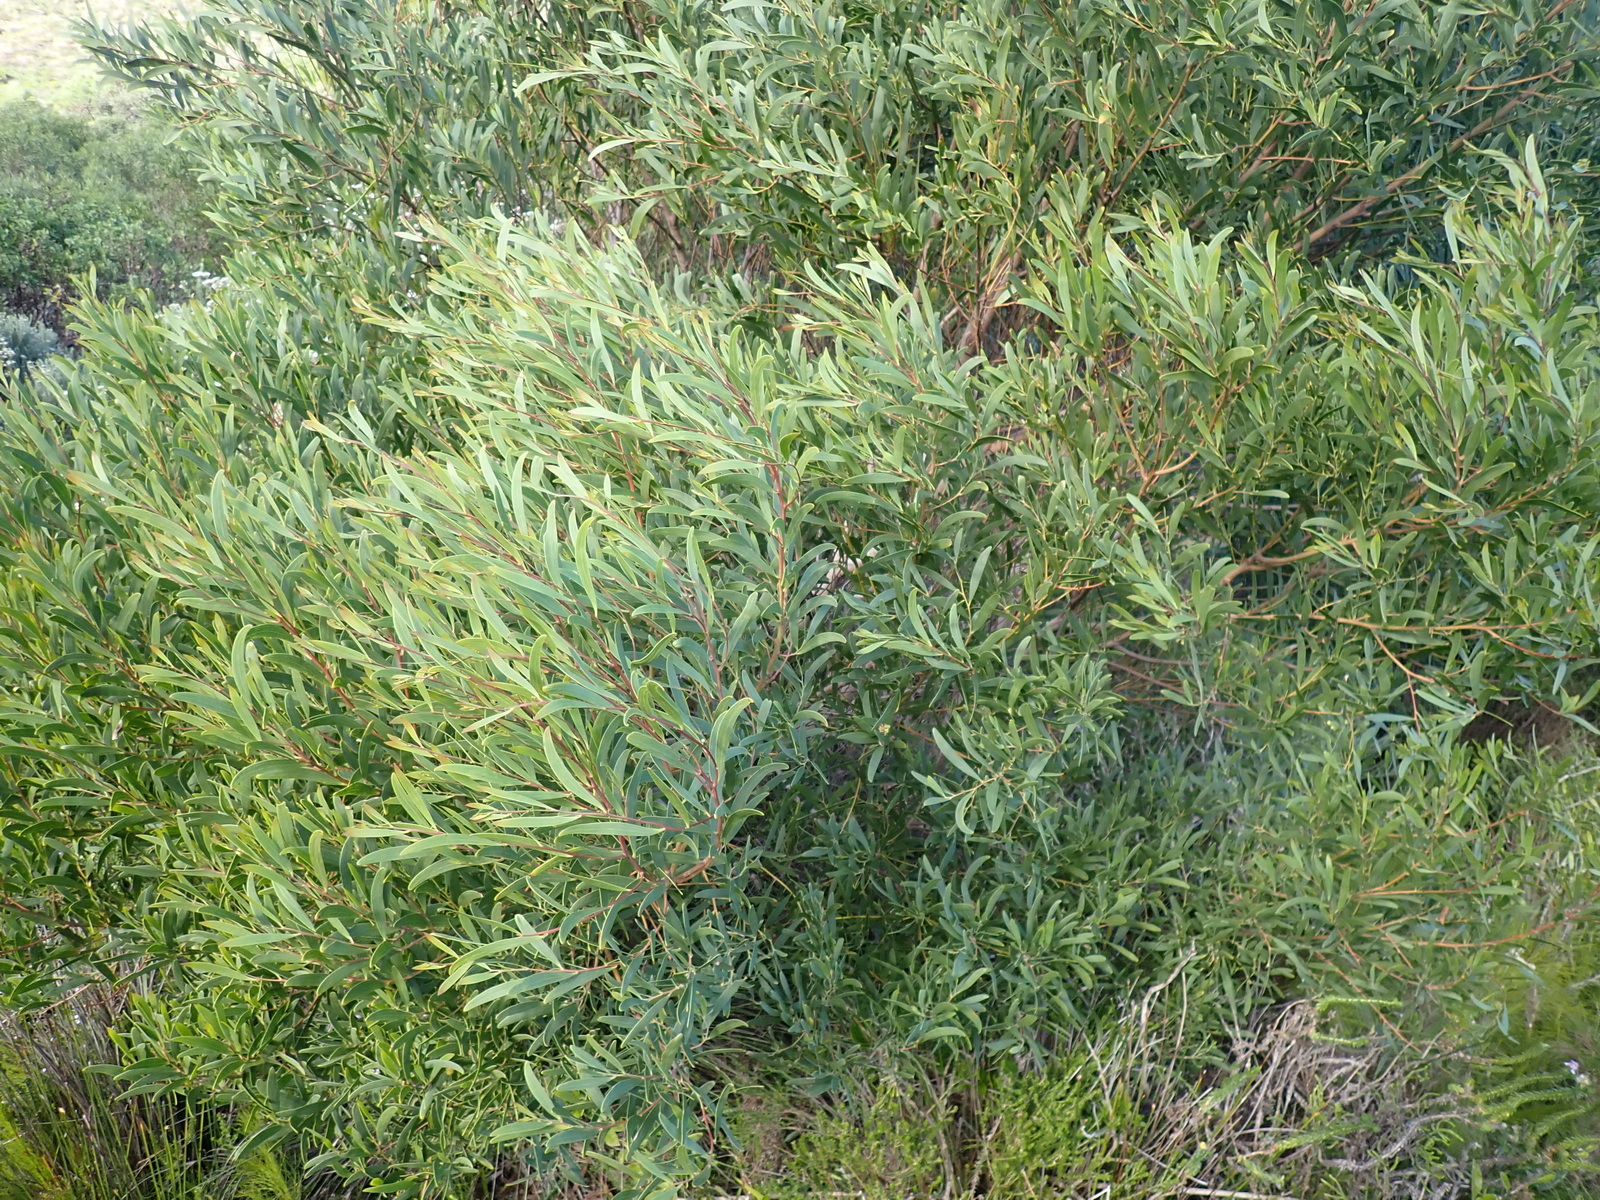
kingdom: Plantae
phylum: Tracheophyta
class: Magnoliopsida
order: Fabales
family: Fabaceae
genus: Acacia
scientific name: Acacia cyclops
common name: Coastal wattle
